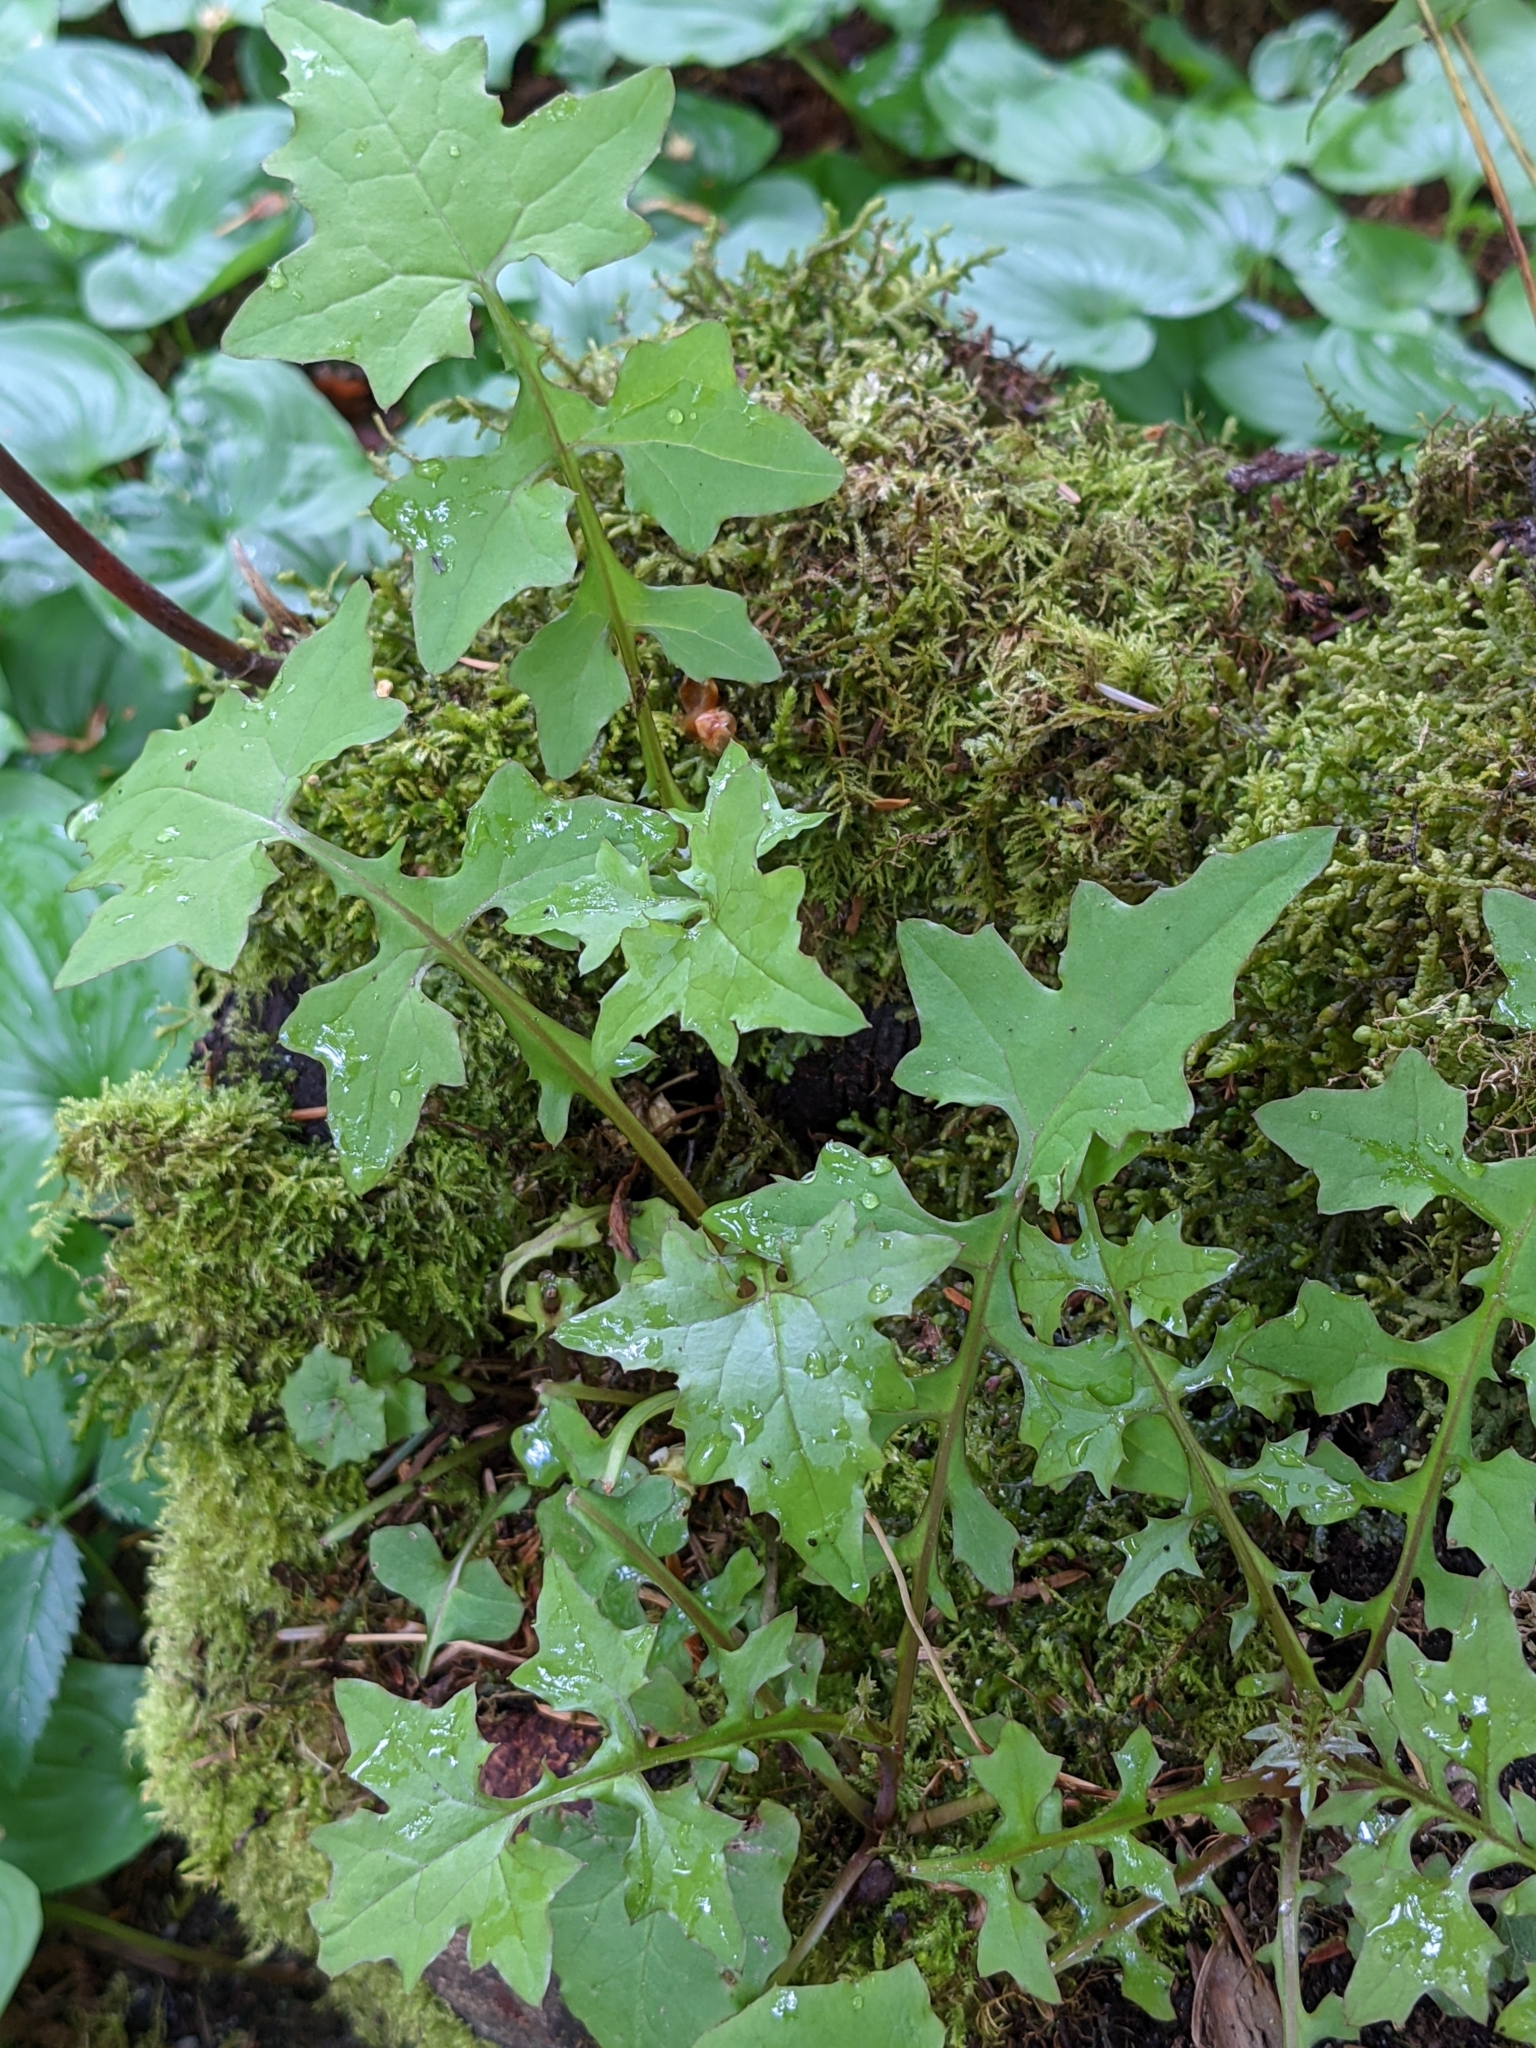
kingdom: Plantae
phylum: Tracheophyta
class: Magnoliopsida
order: Asterales
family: Asteraceae
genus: Mycelis
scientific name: Mycelis muralis
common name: Wall lettuce
